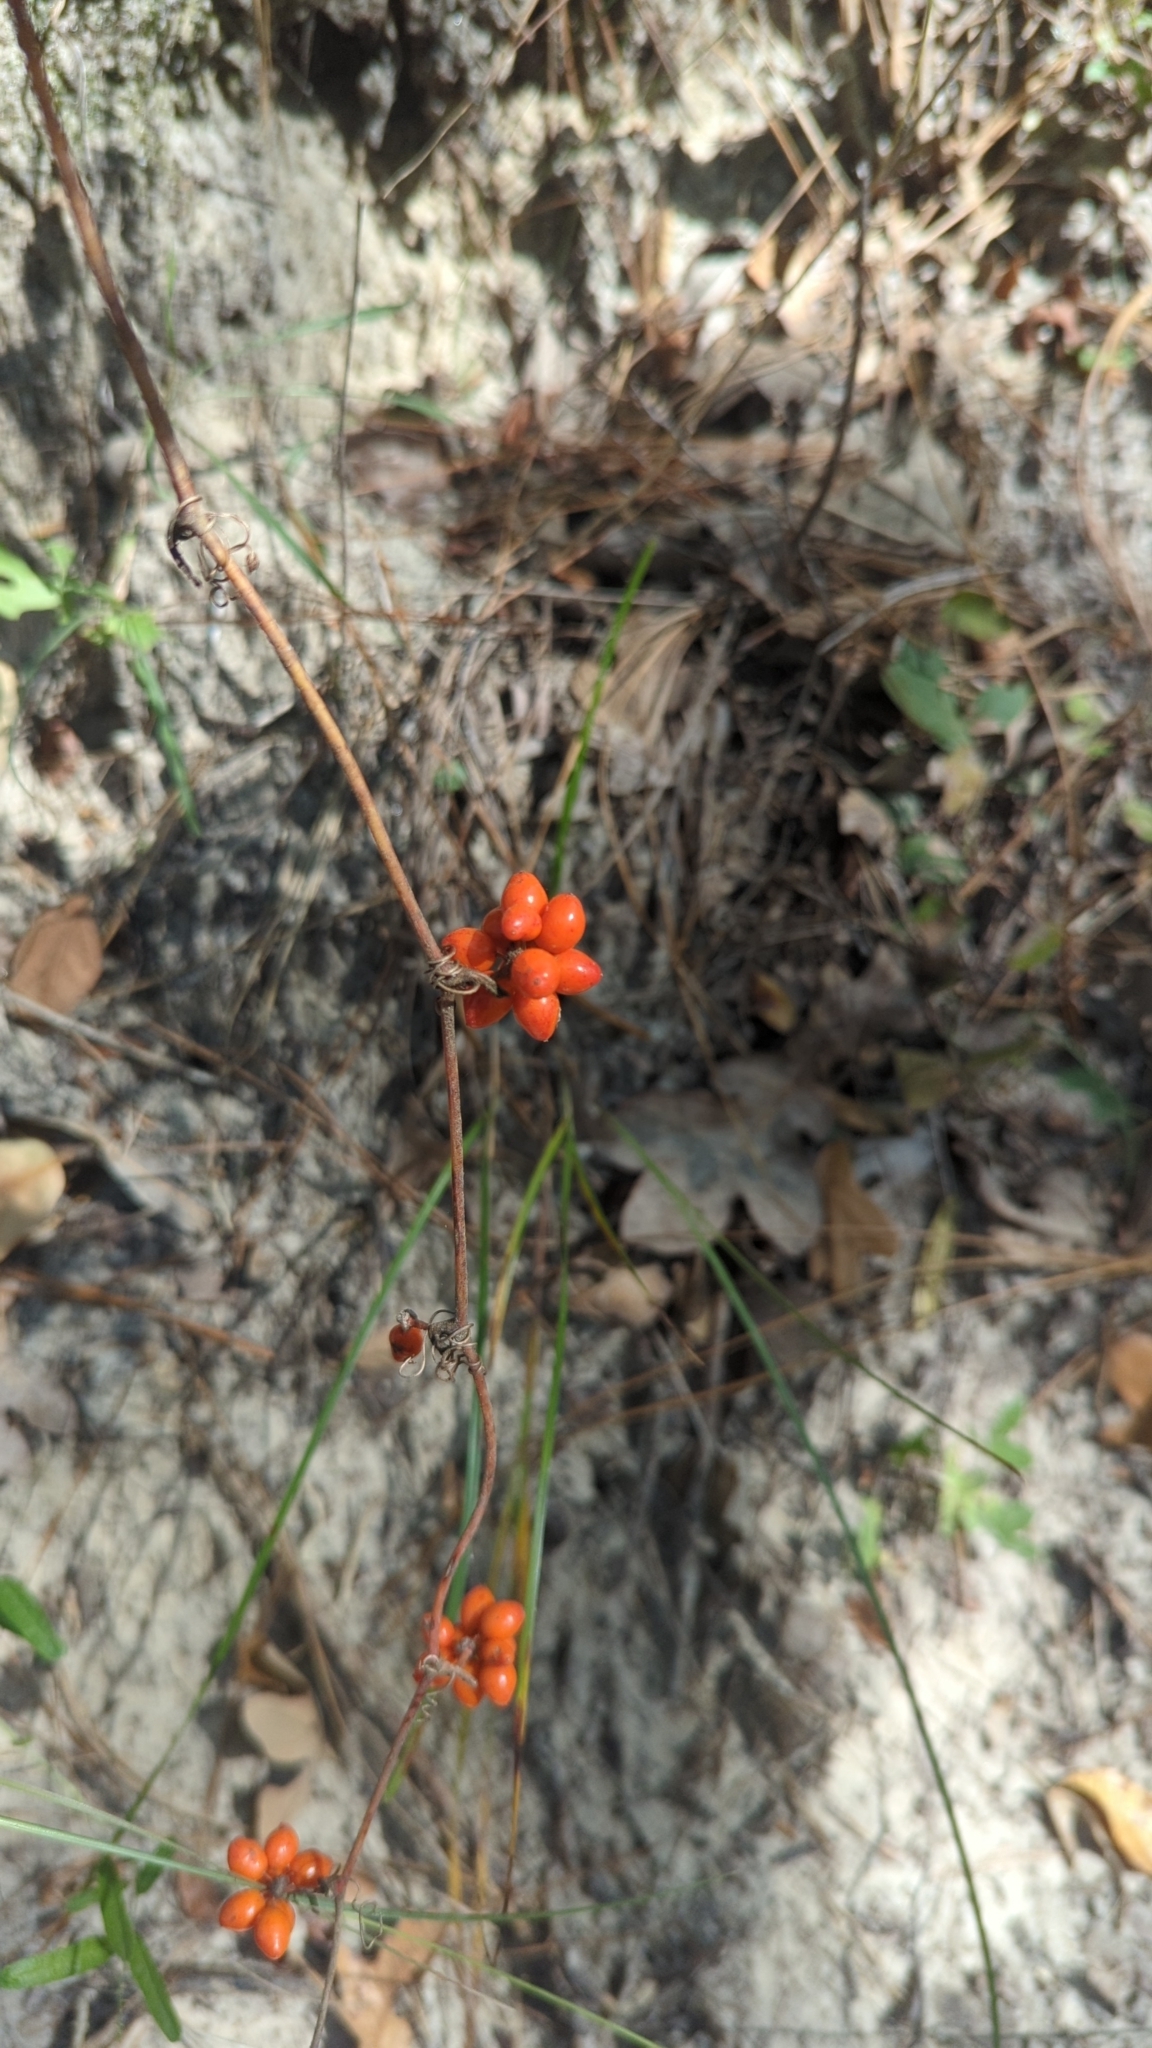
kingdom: Plantae
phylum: Tracheophyta
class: Liliopsida
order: Liliales
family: Smilacaceae
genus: Smilax
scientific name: Smilax pumila
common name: Sarsaparilla-vine
